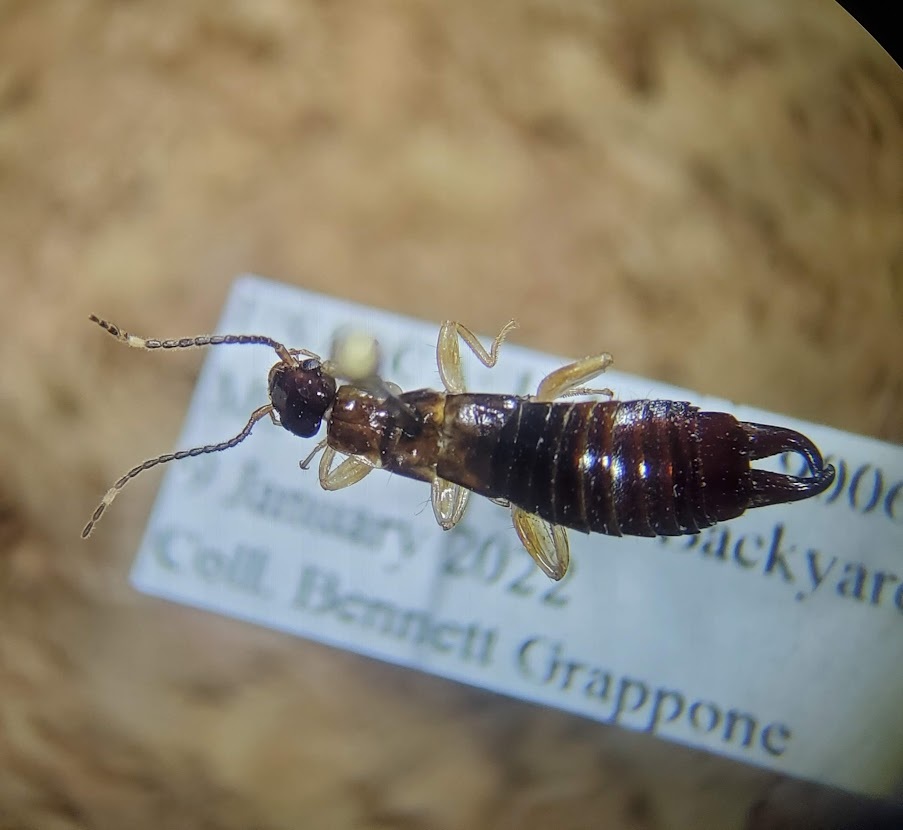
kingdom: Animalia
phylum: Arthropoda
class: Insecta
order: Dermaptera
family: Anisolabididae
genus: Euborellia
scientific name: Euborellia annulipes
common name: Ringlegged earwig
